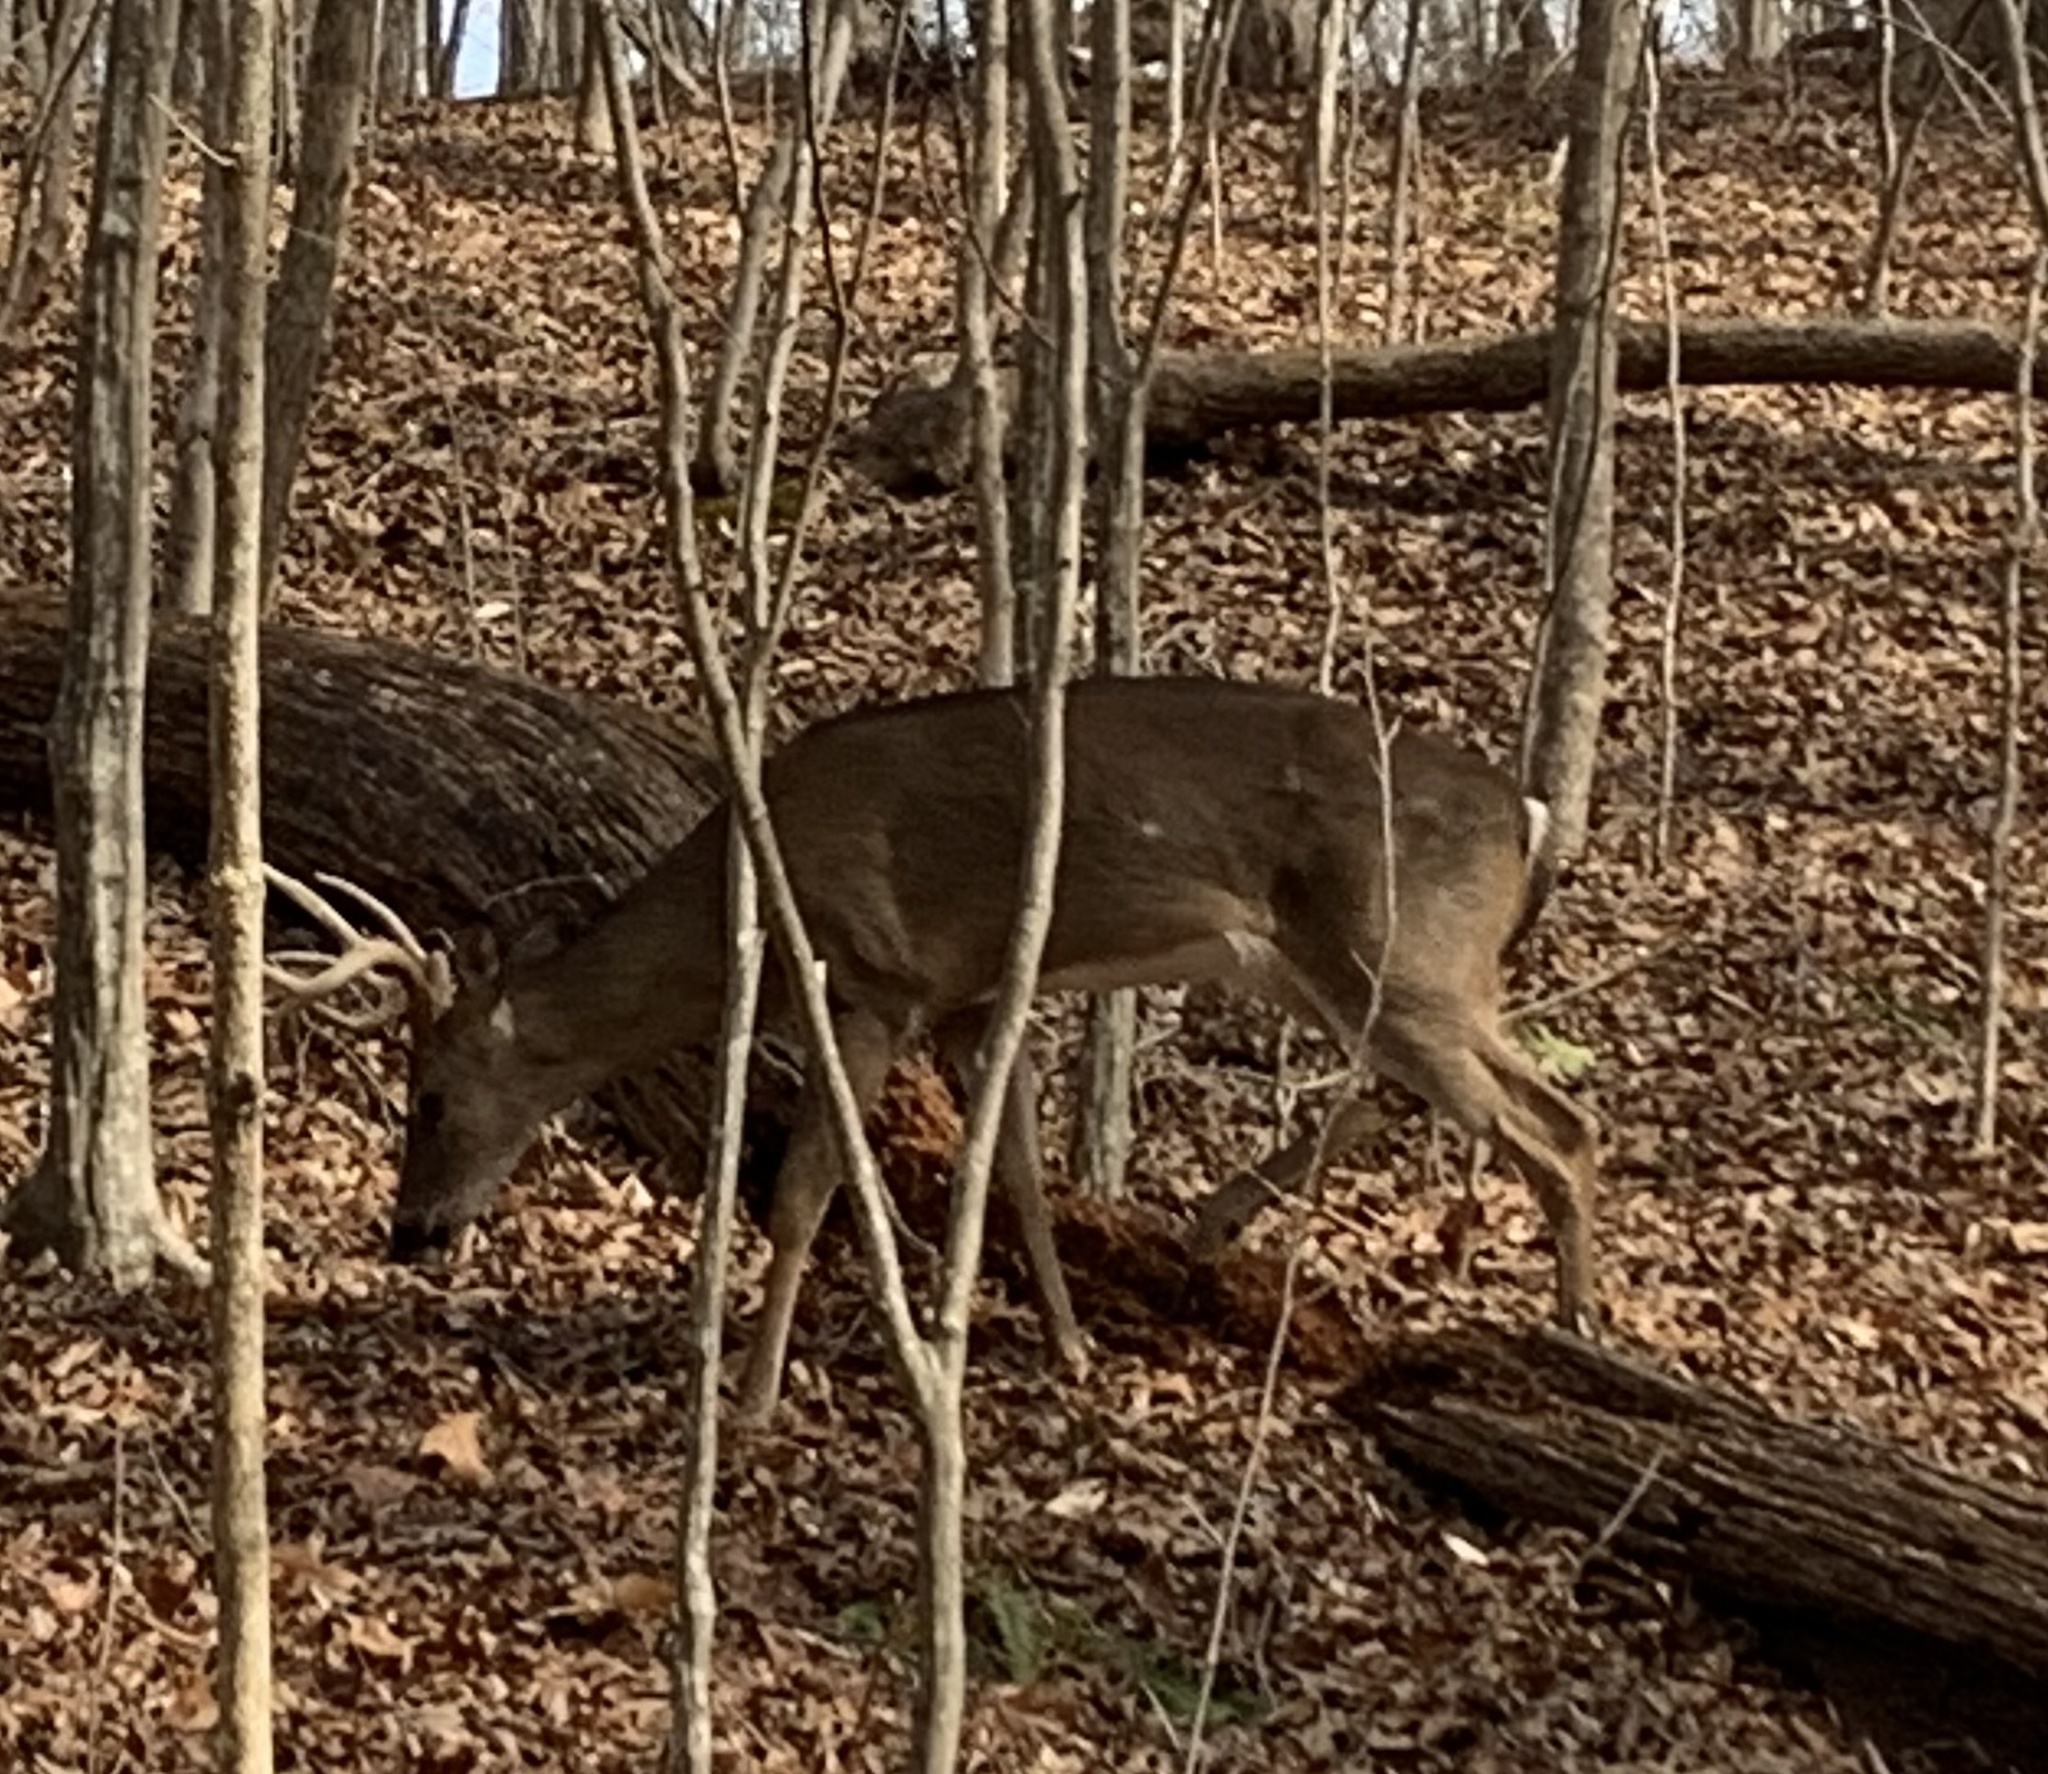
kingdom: Animalia
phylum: Chordata
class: Mammalia
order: Artiodactyla
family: Cervidae
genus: Odocoileus
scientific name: Odocoileus virginianus
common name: White-tailed deer
